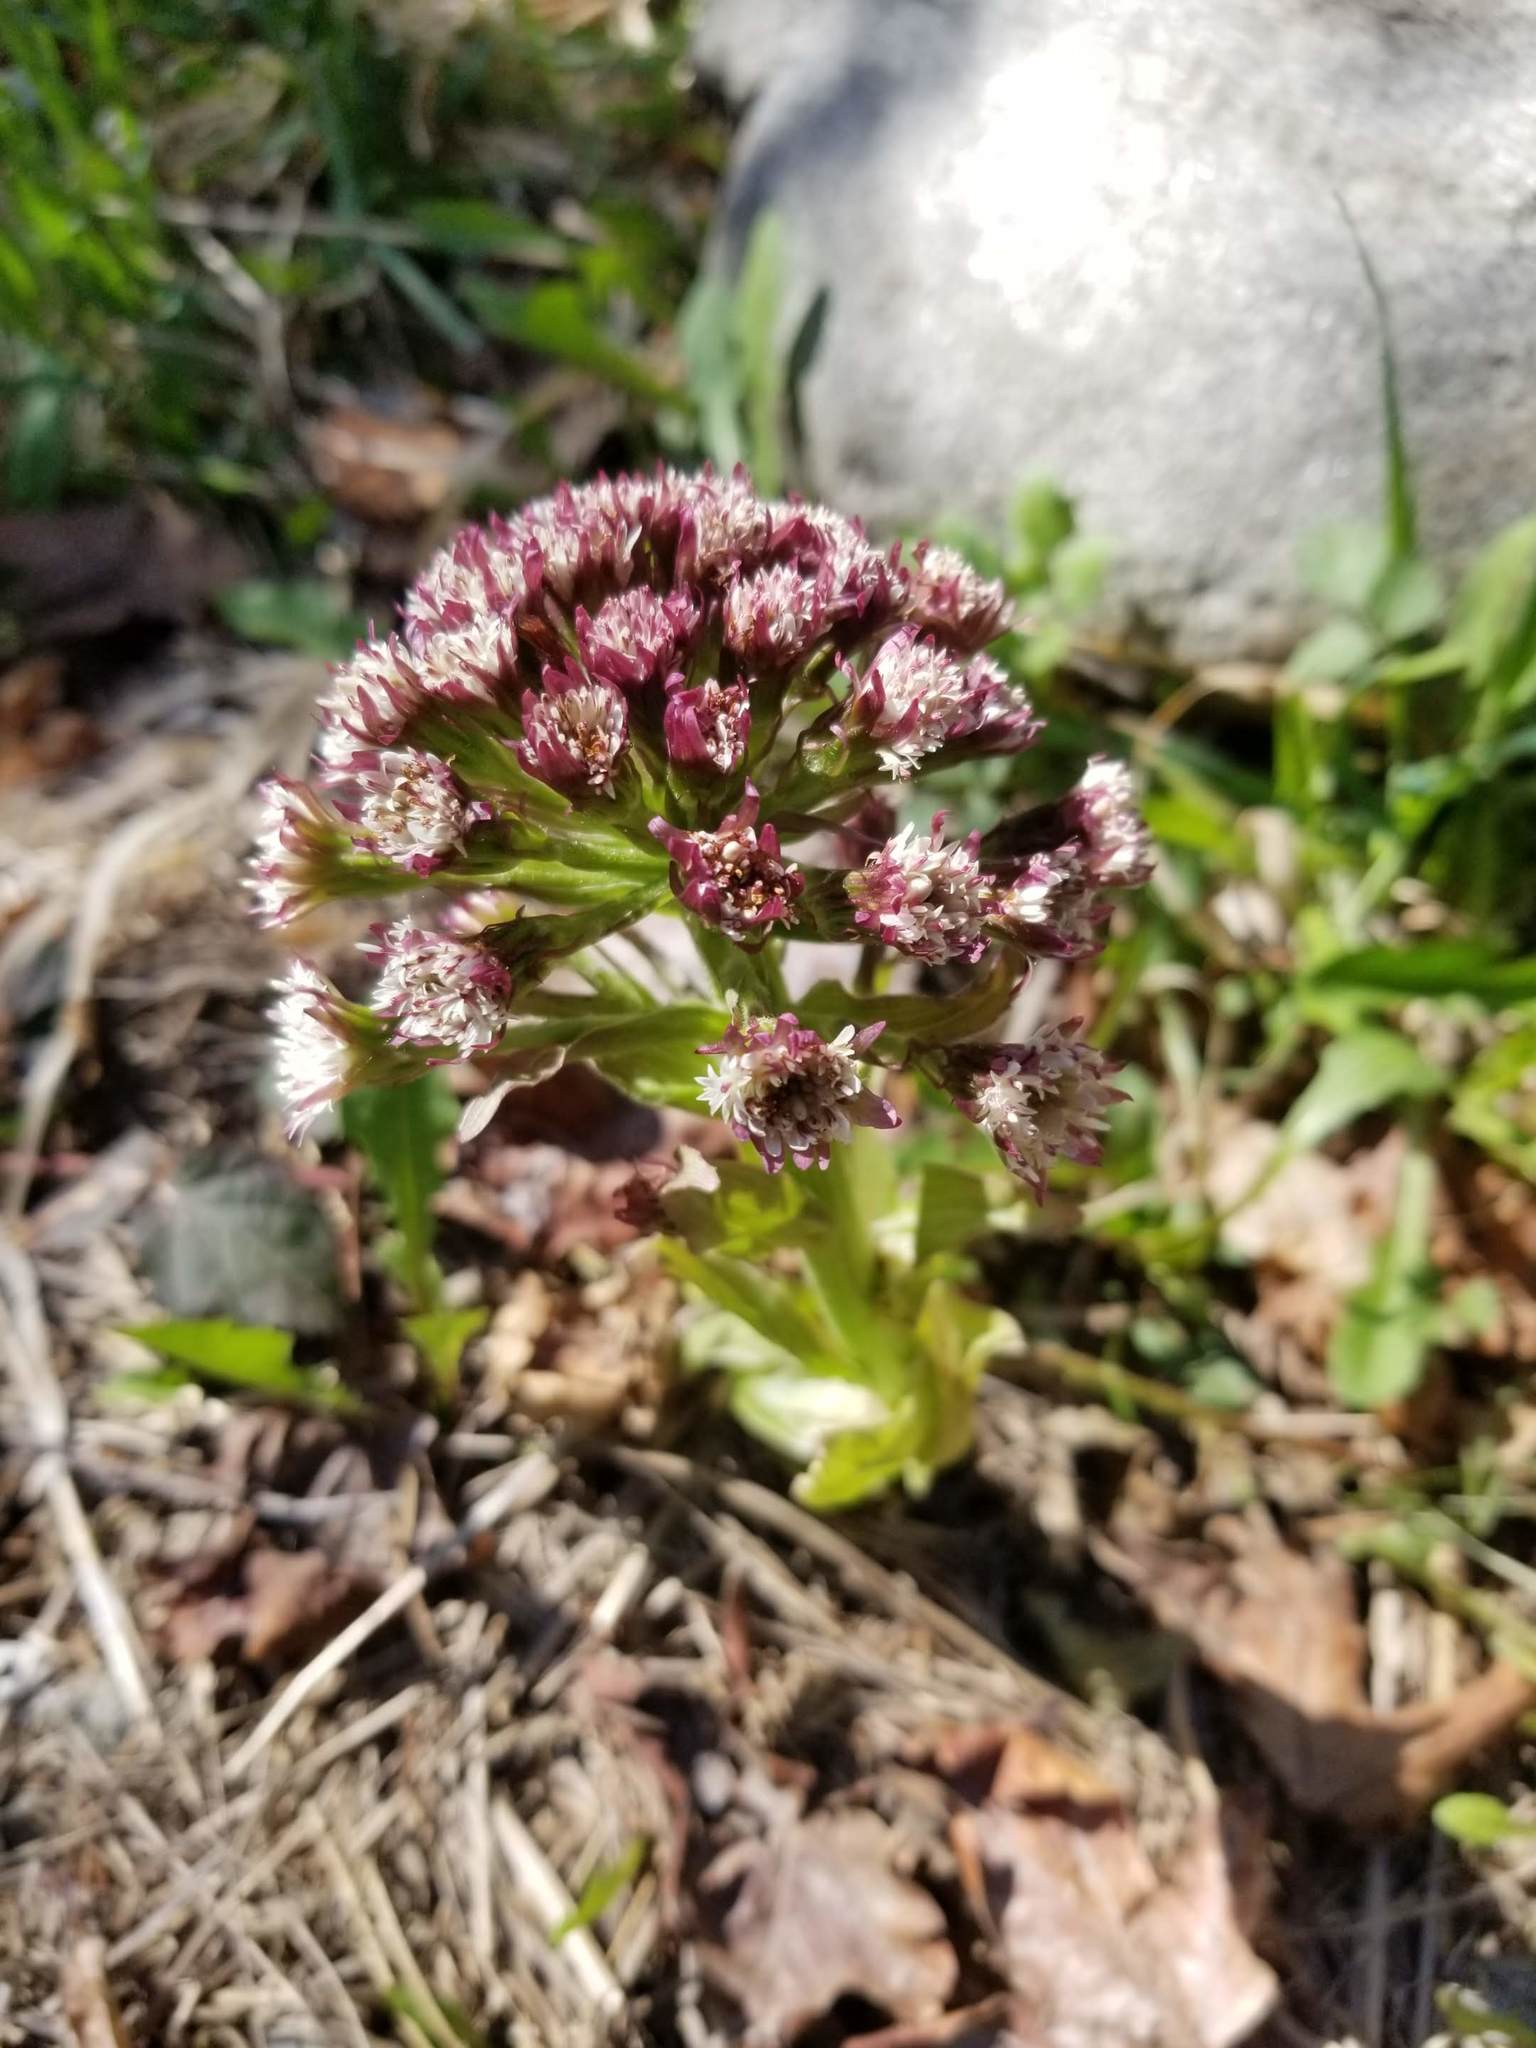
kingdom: Plantae
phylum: Tracheophyta
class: Magnoliopsida
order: Asterales
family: Asteraceae
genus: Petasites
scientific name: Petasites frigidus
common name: Arctic butterbur
